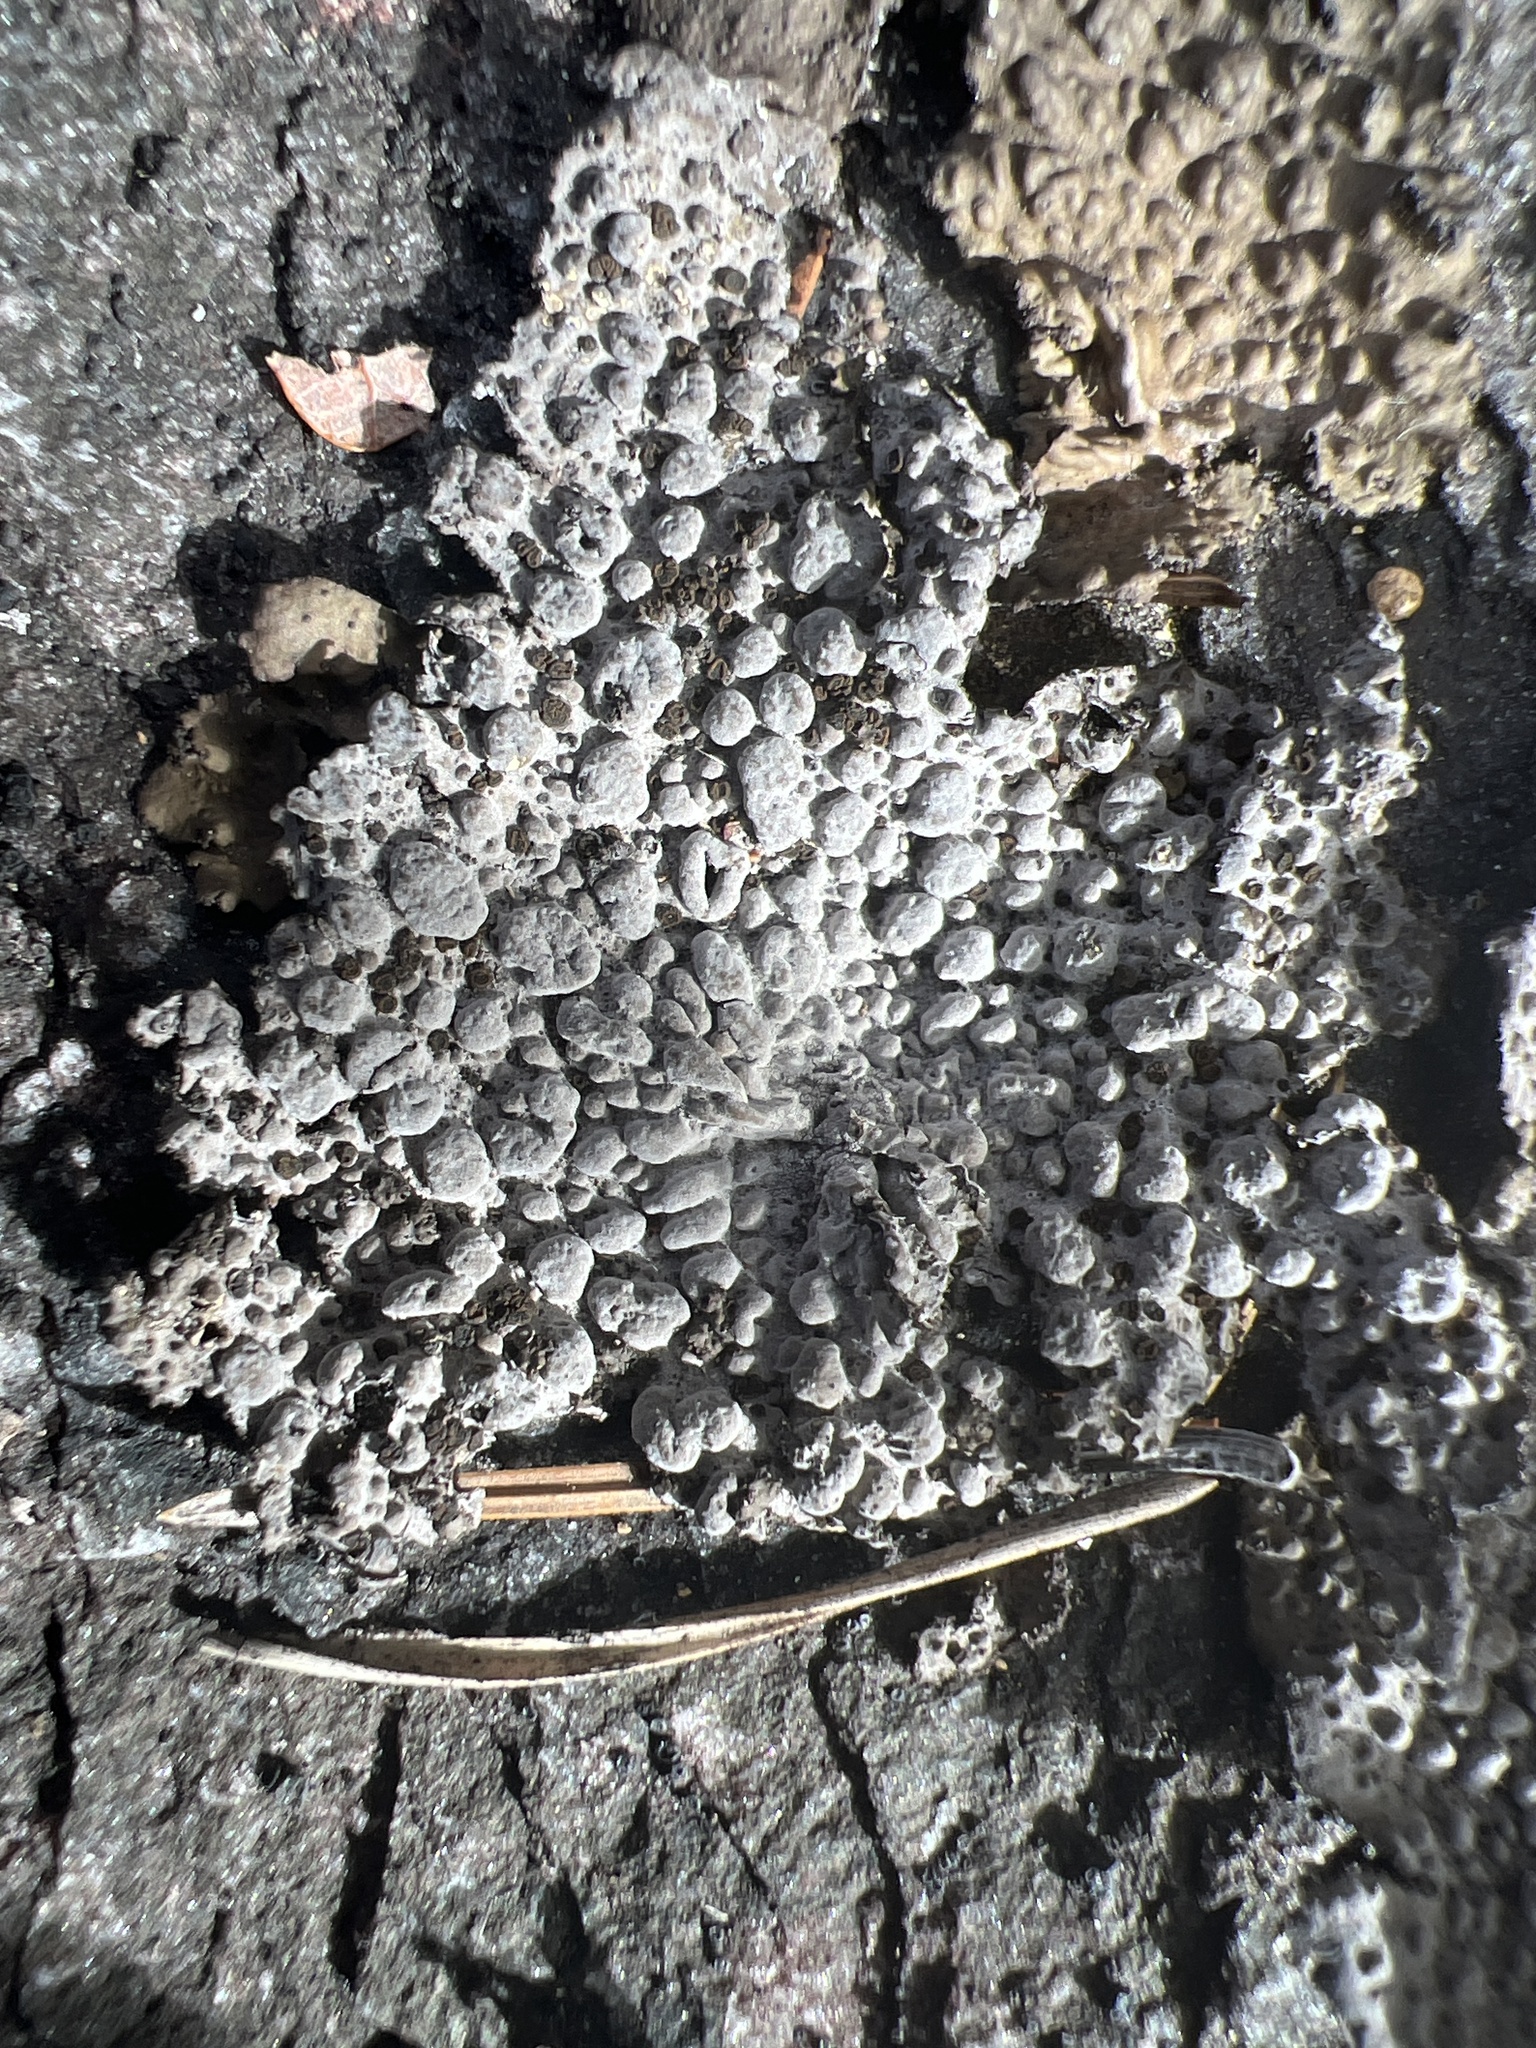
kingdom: Fungi
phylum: Ascomycota
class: Lecanoromycetes
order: Umbilicariales
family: Umbilicariaceae
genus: Lasallia
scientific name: Lasallia papulosa
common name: Common toadskin lichen
